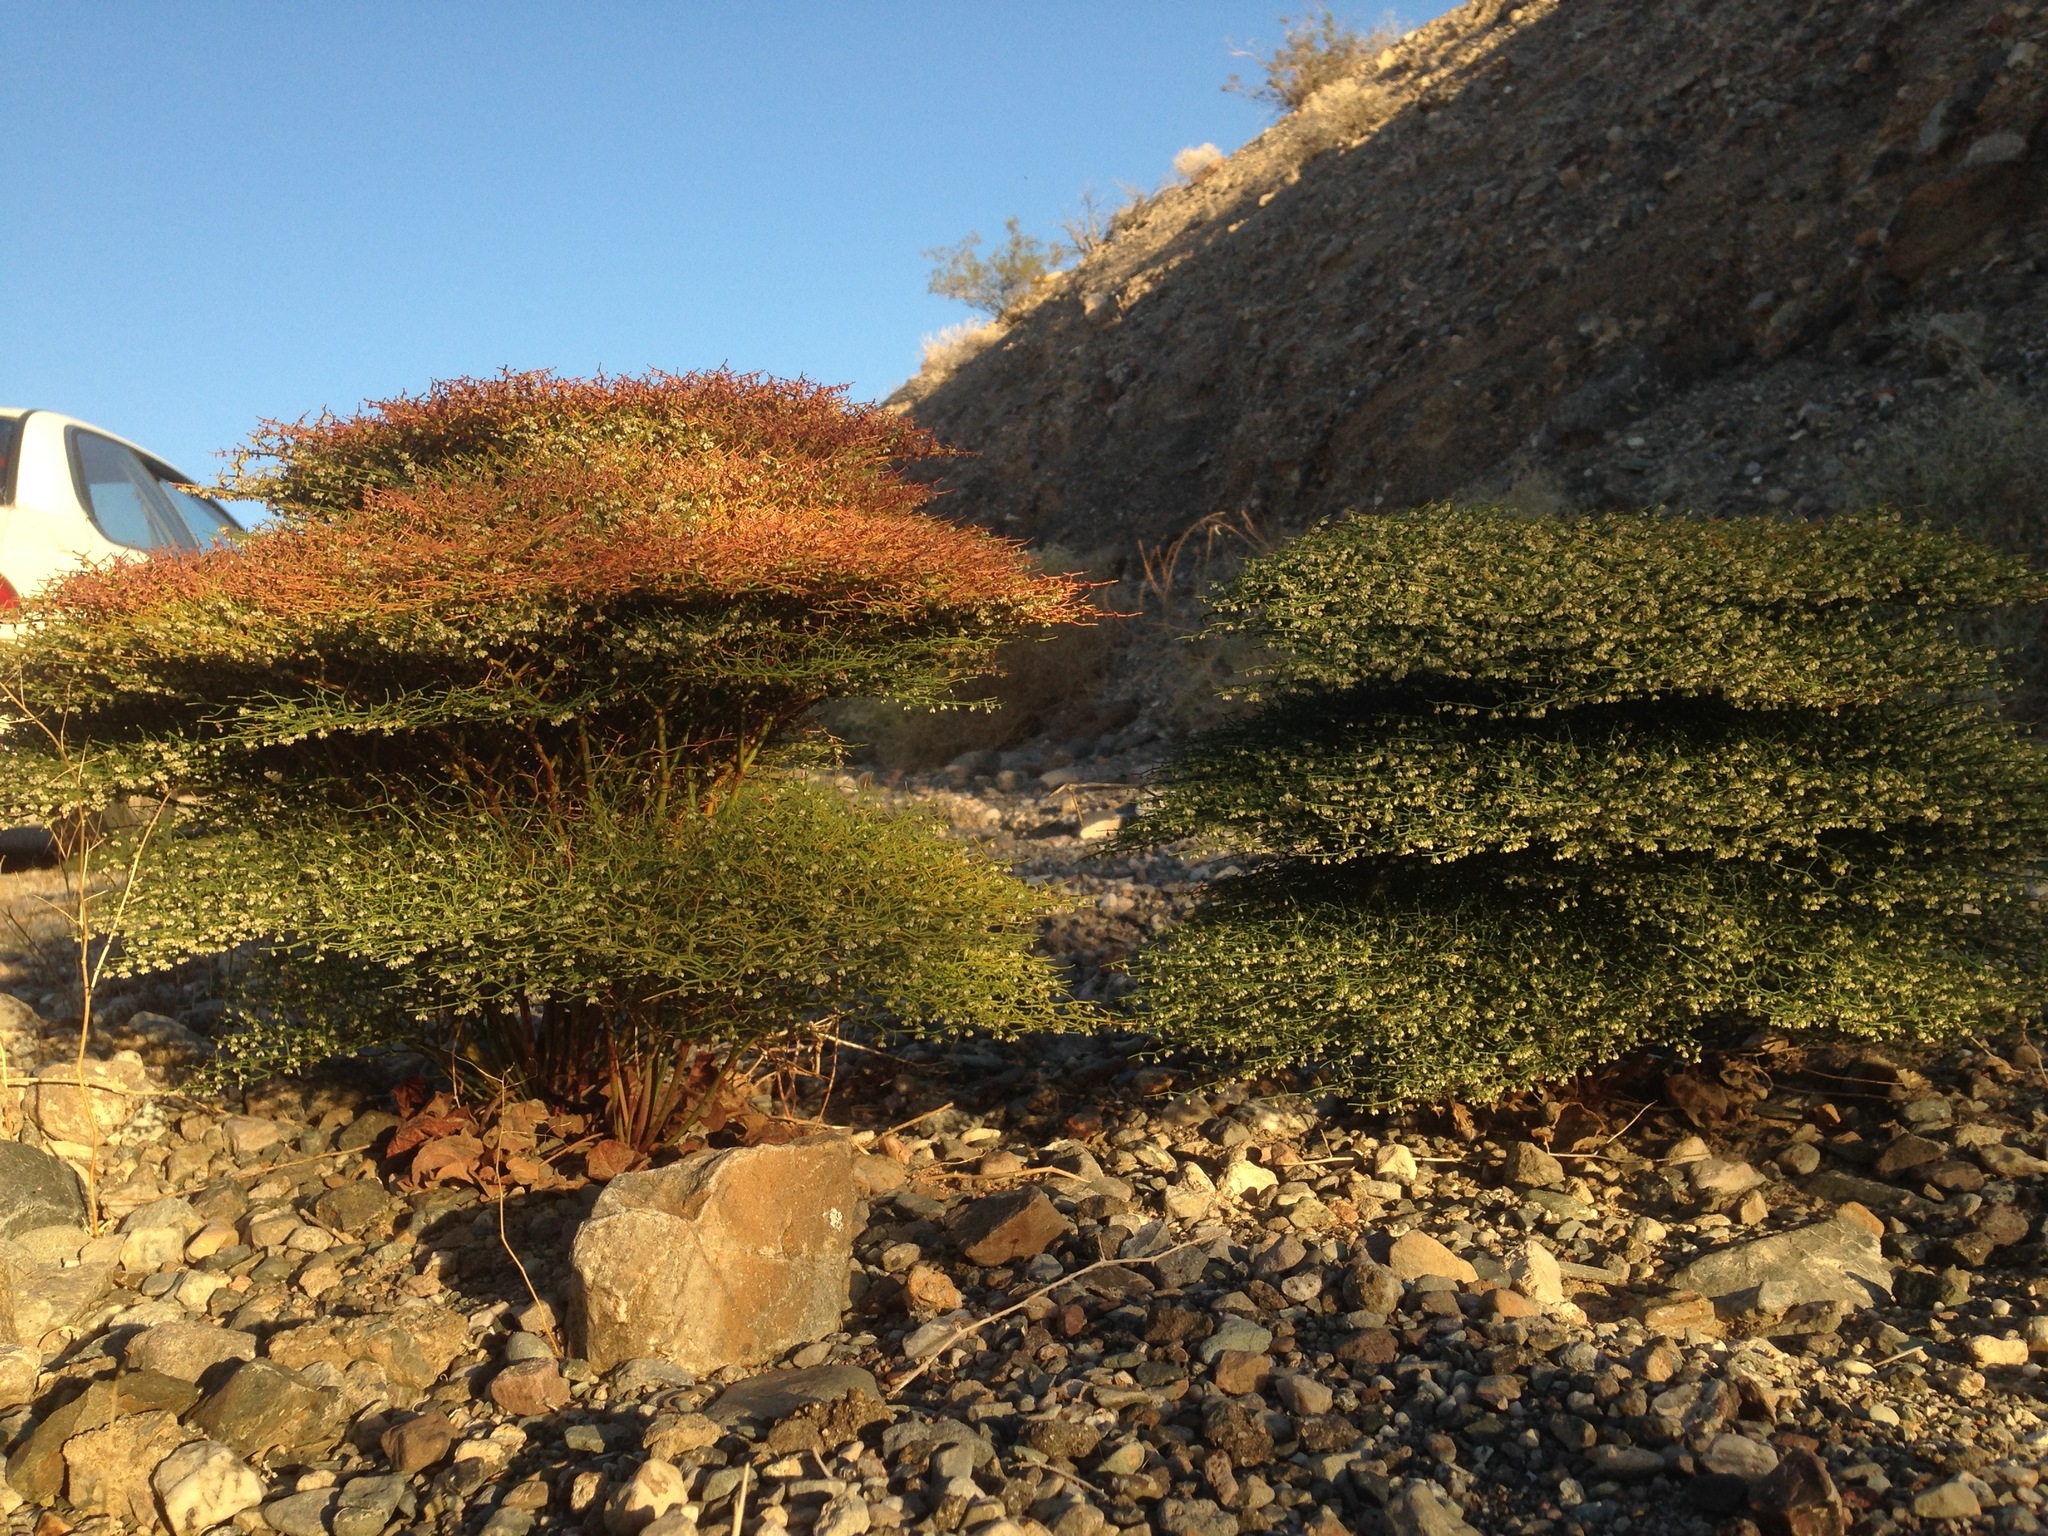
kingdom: Plantae
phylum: Tracheophyta
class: Magnoliopsida
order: Caryophyllales
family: Polygonaceae
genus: Eriogonum
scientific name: Eriogonum rixfordii
